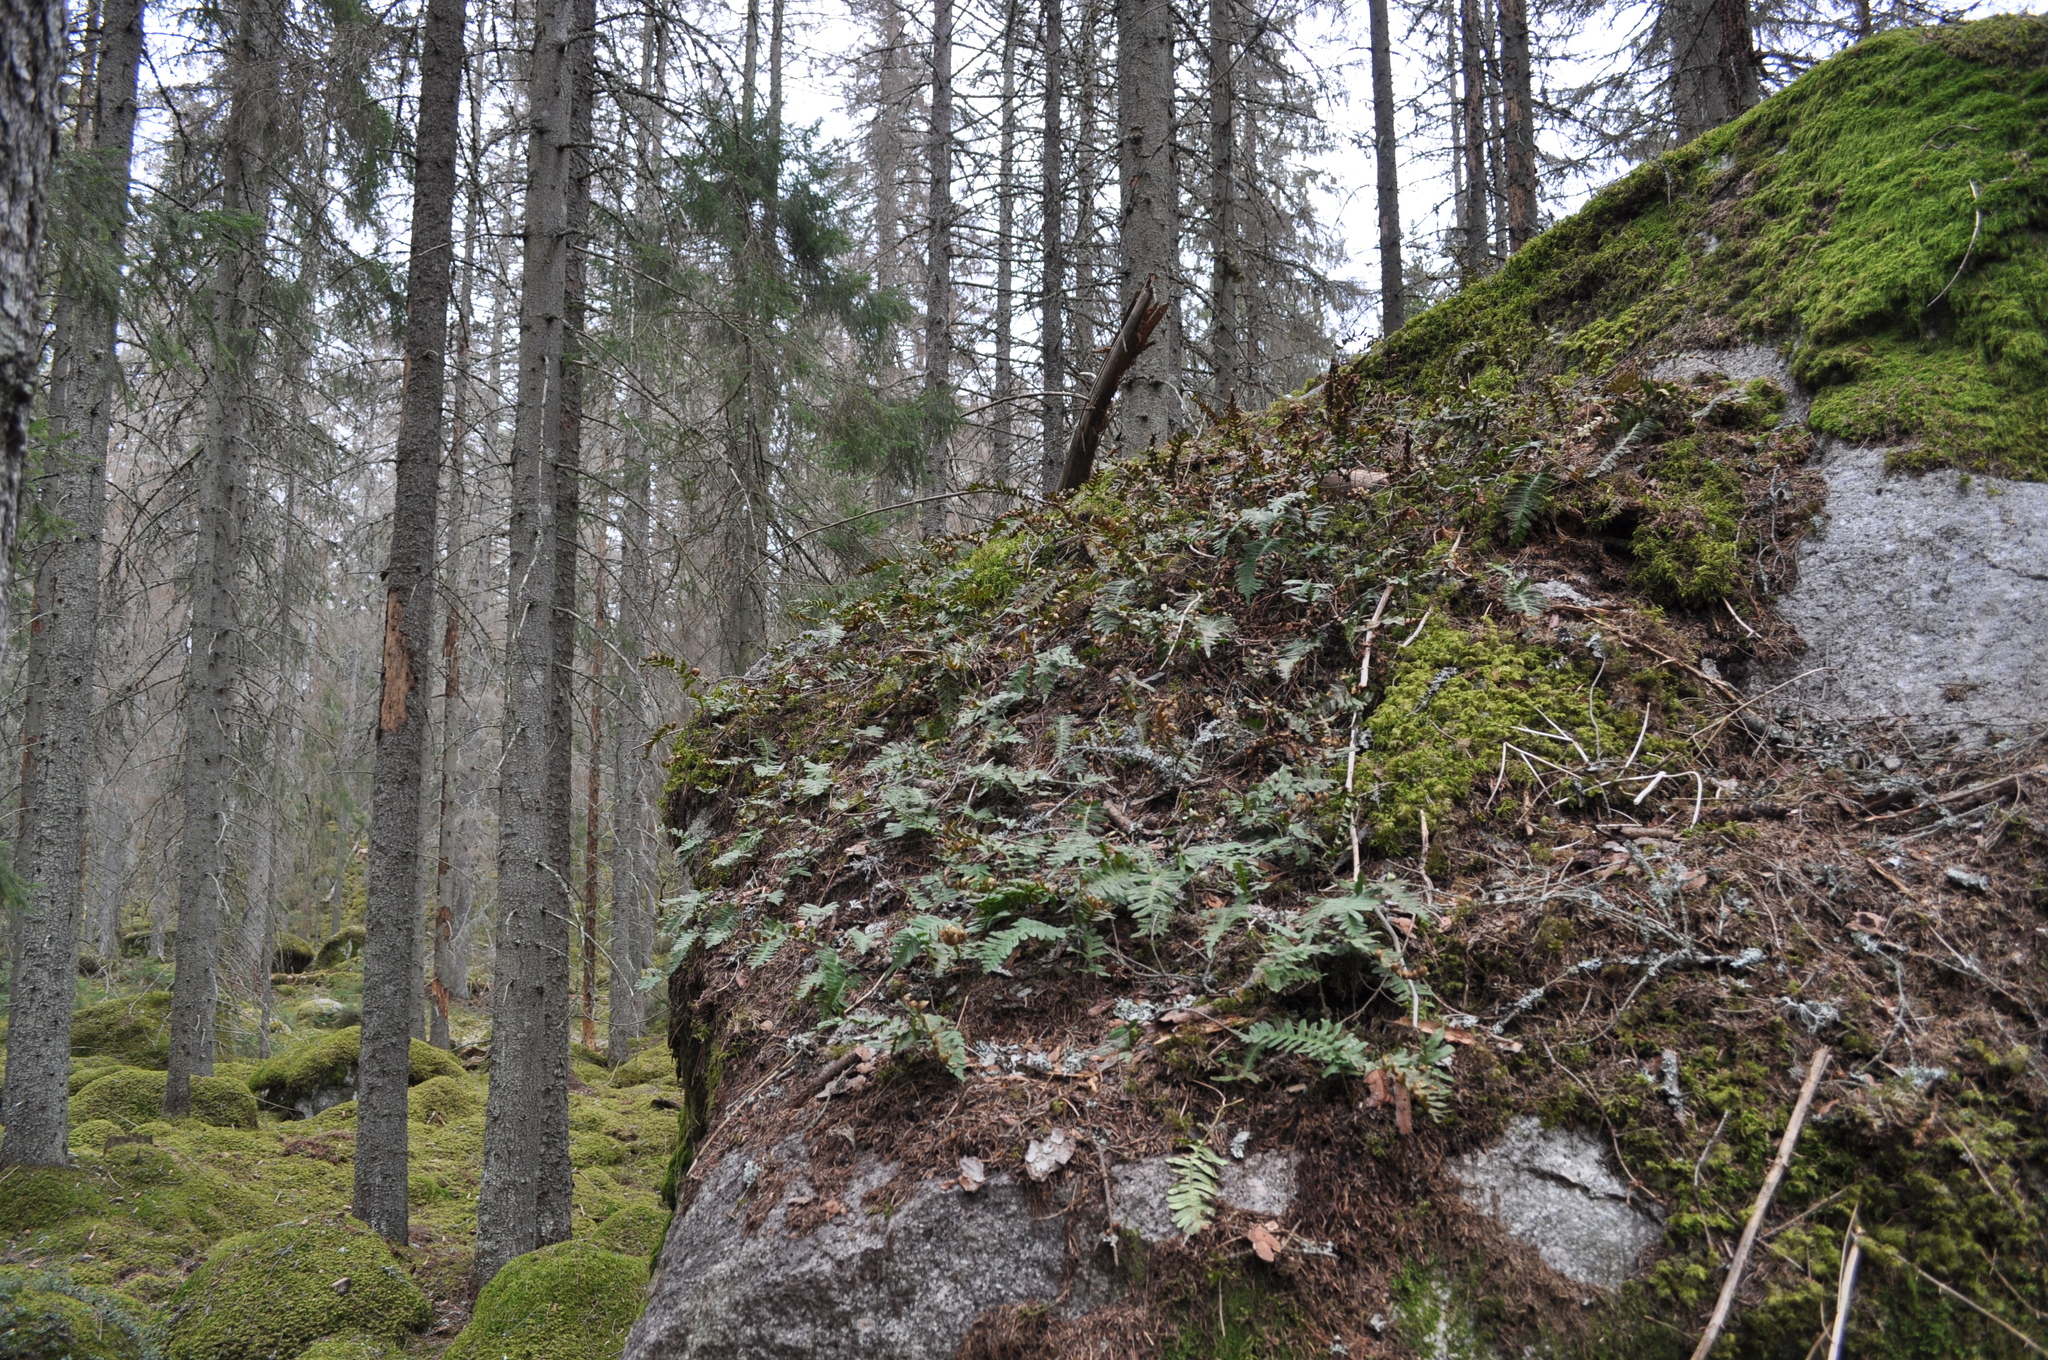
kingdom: Plantae
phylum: Tracheophyta
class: Polypodiopsida
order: Polypodiales
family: Polypodiaceae
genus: Polypodium
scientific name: Polypodium vulgare
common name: Common polypody
